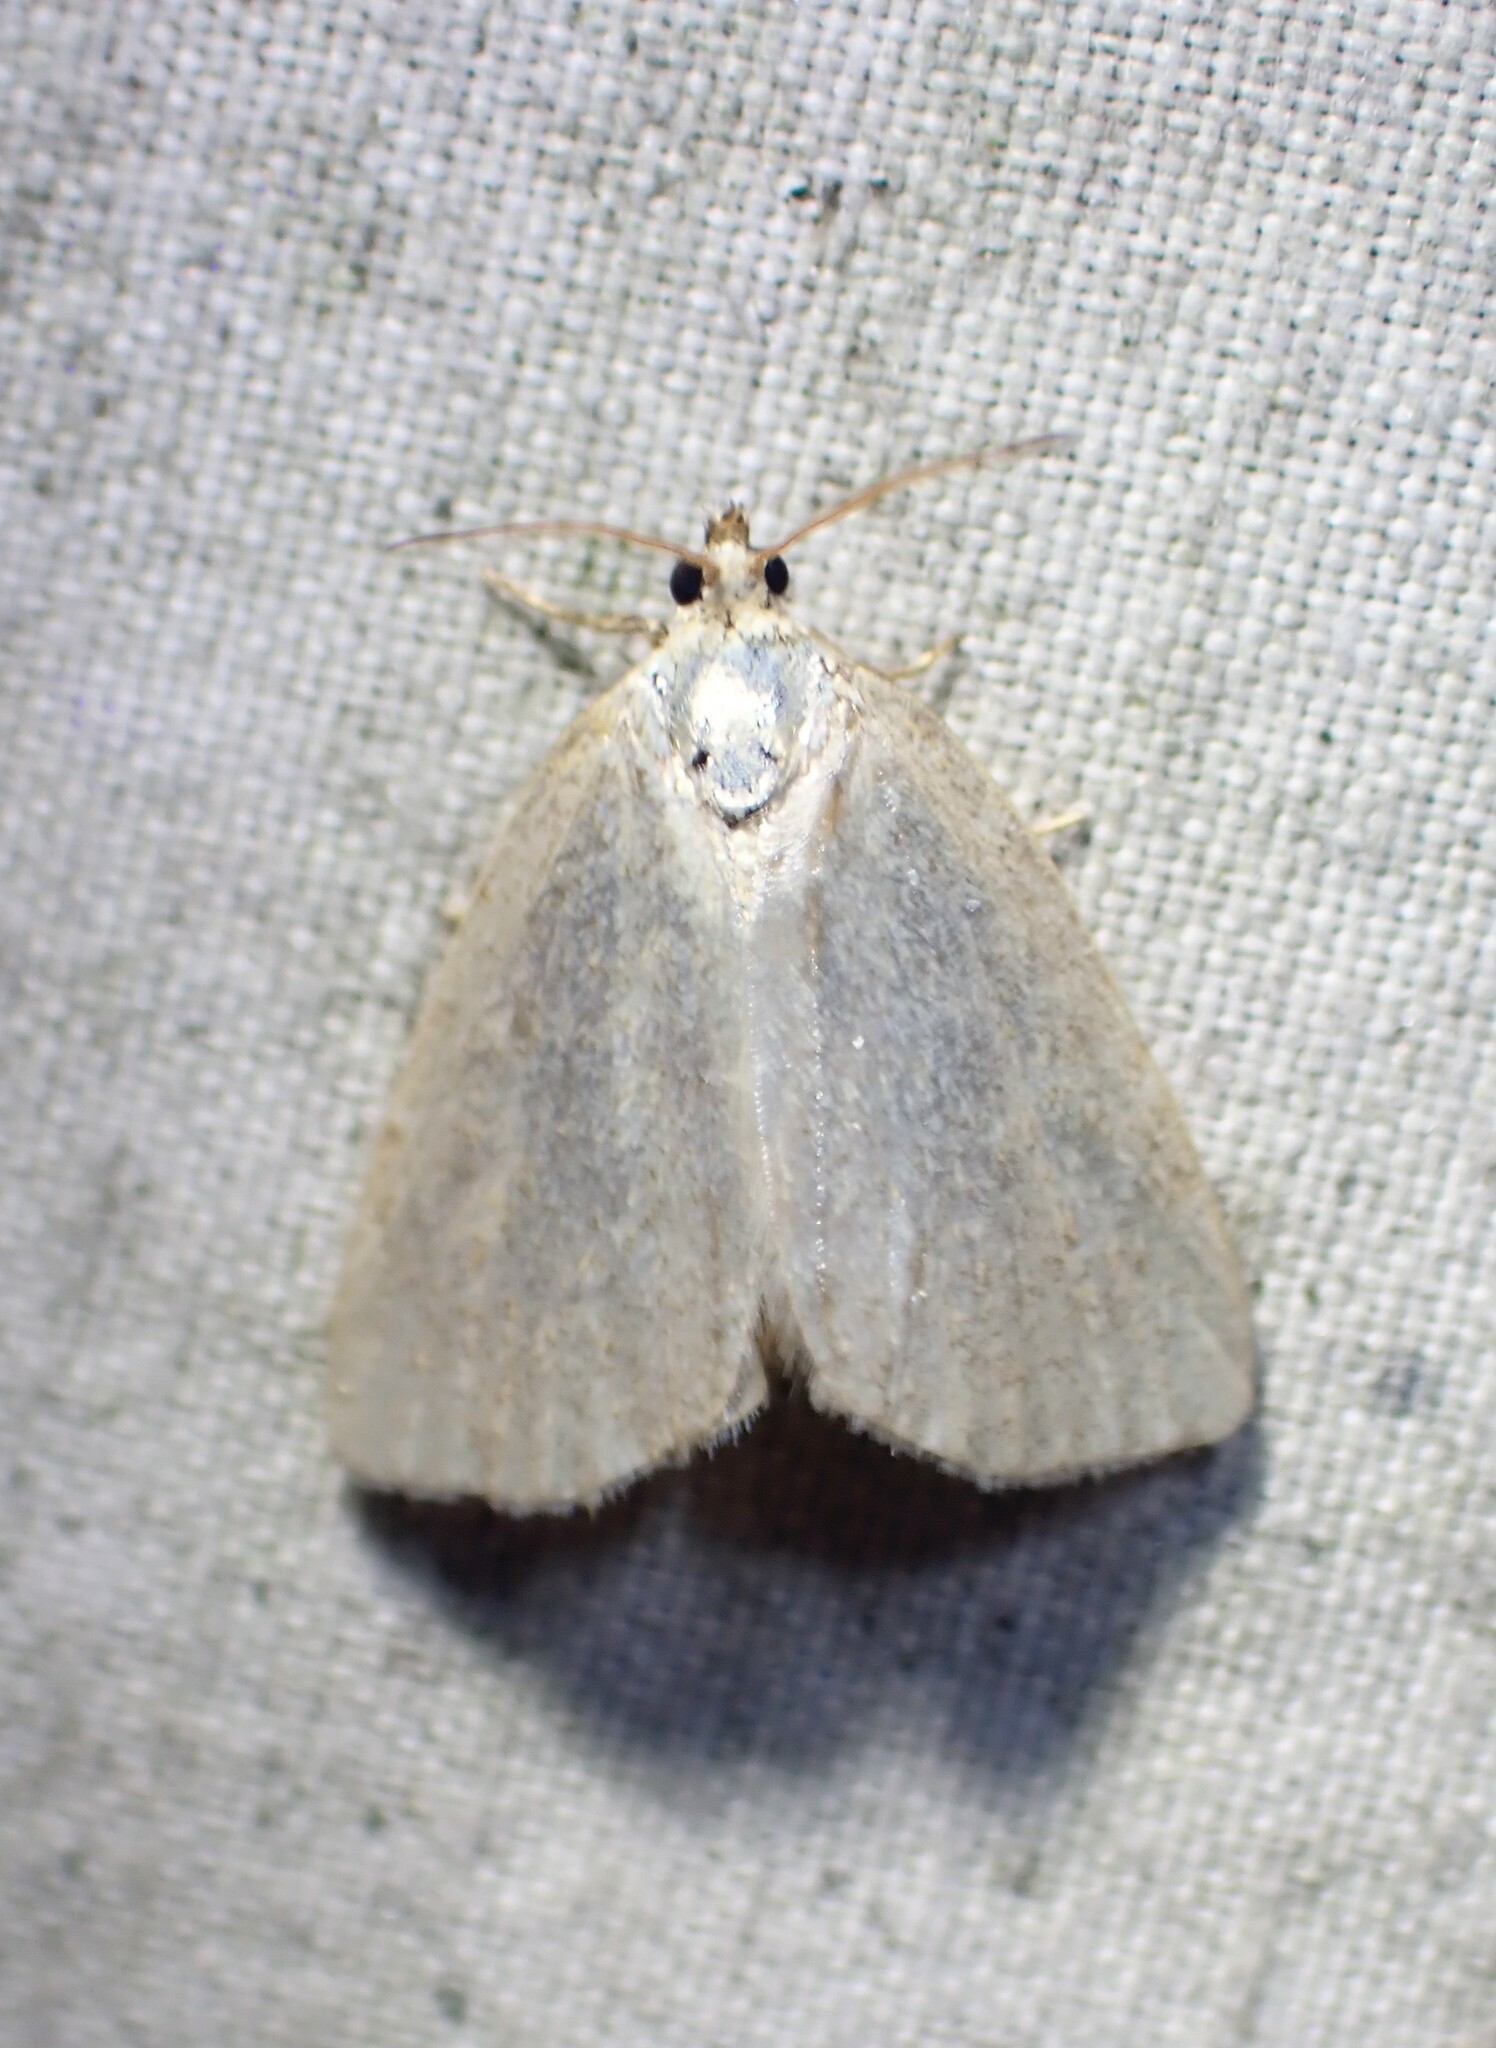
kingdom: Animalia
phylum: Arthropoda
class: Insecta
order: Lepidoptera
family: Noctuidae
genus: Protodeltote
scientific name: Protodeltote albidula
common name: Pale glyph
